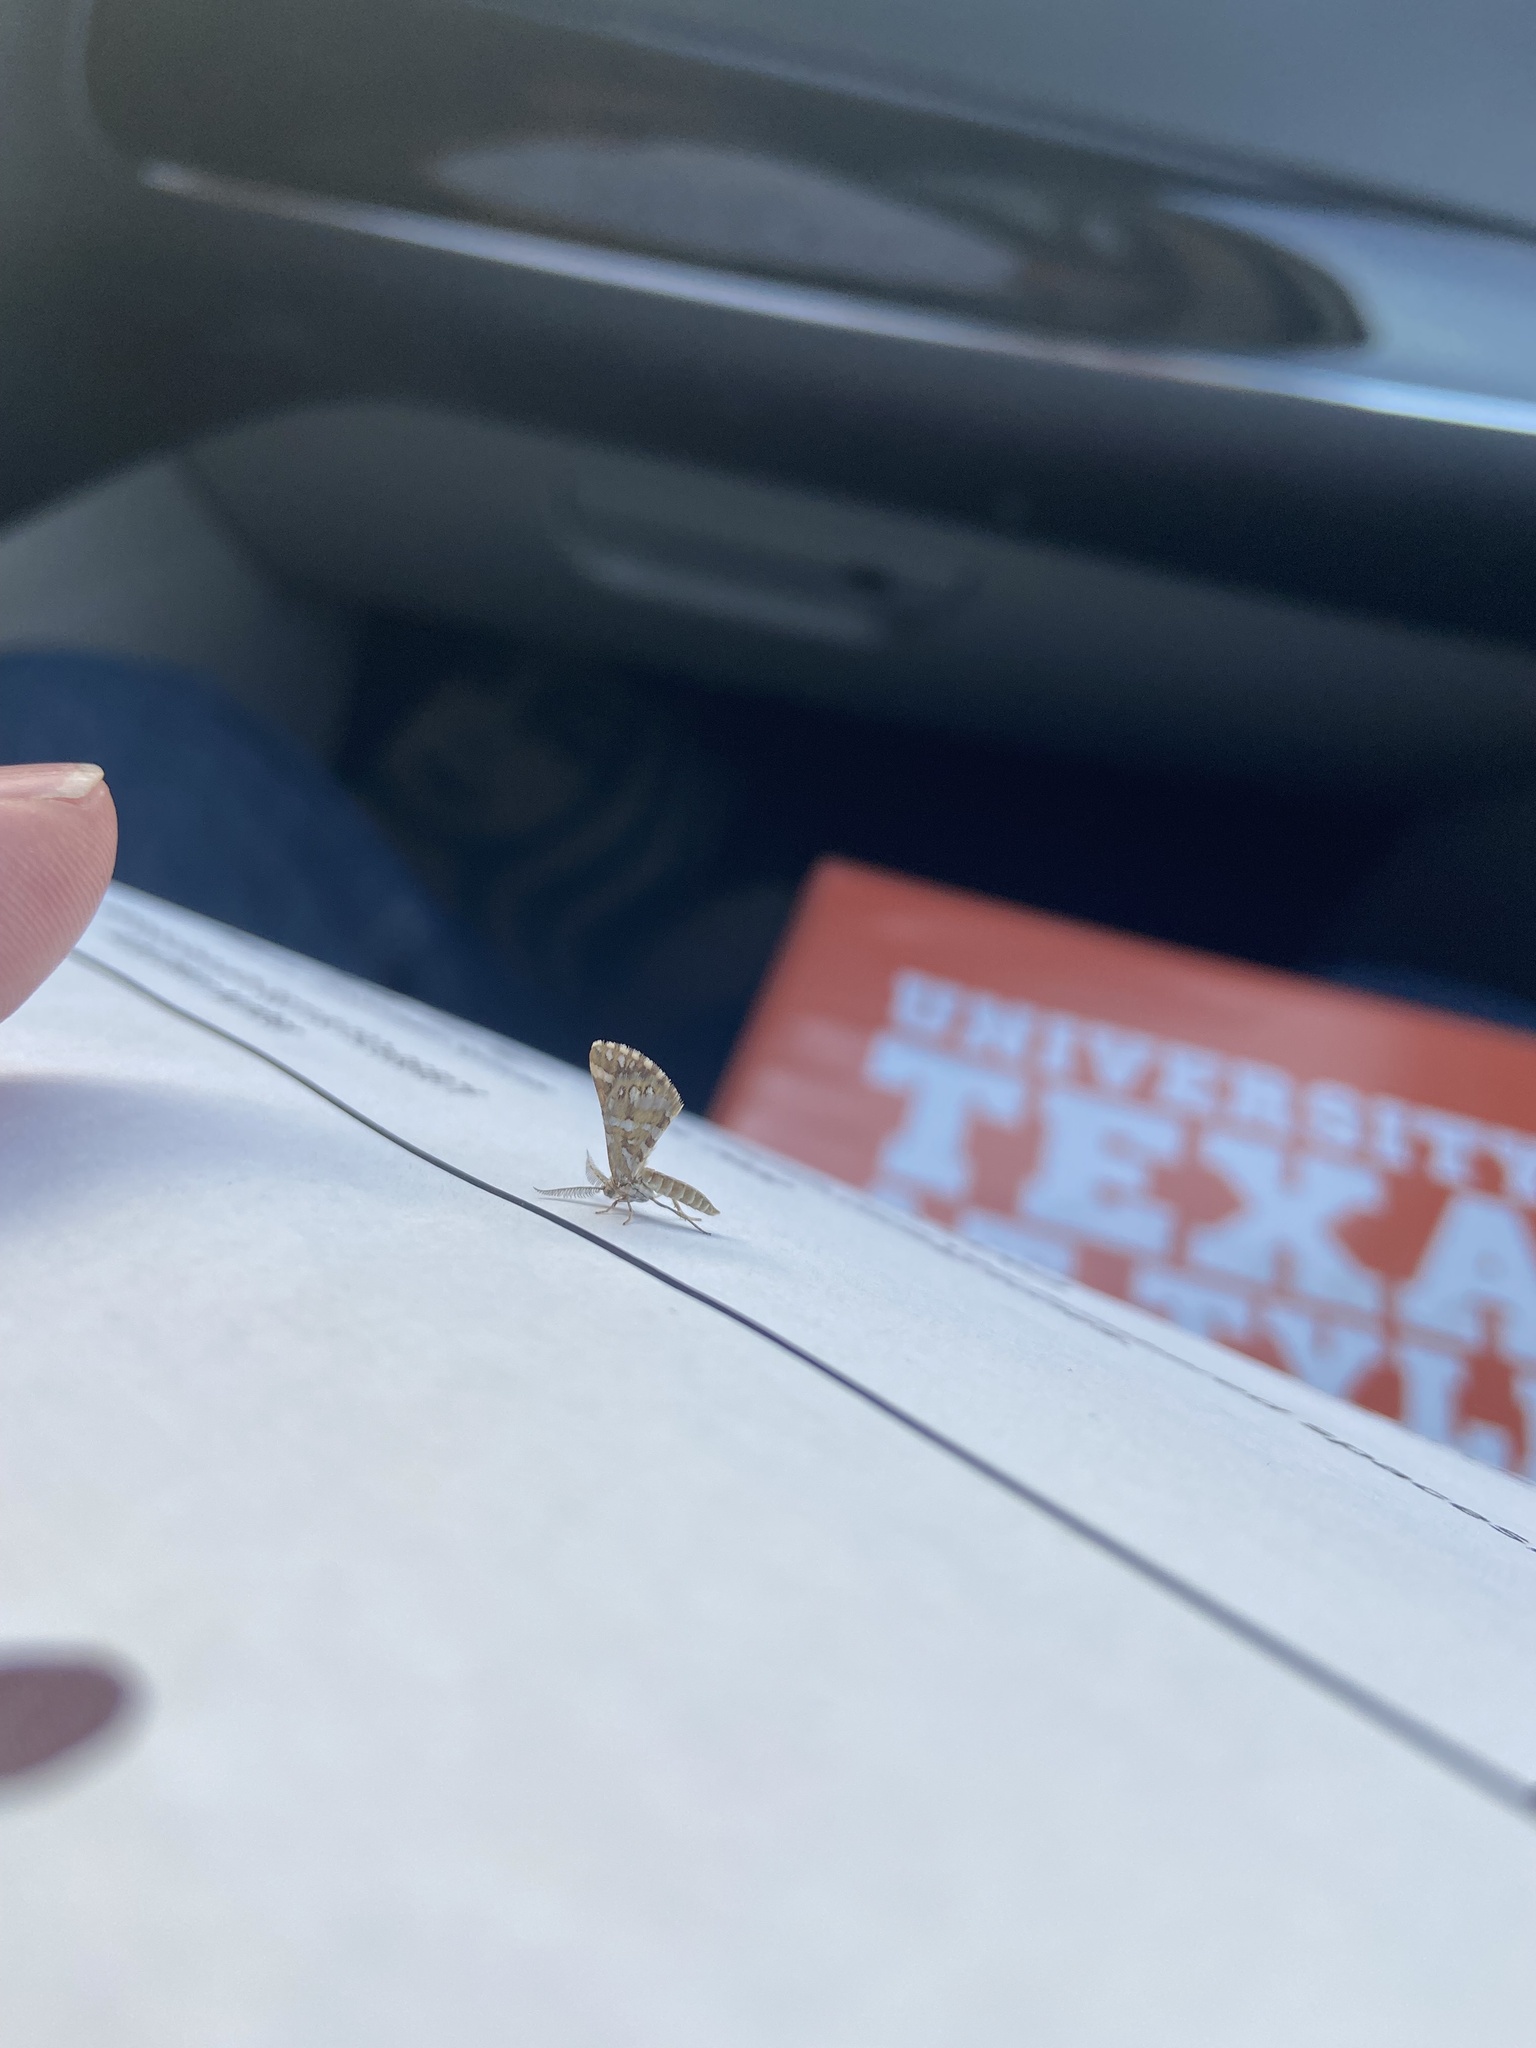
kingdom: Animalia
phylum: Arthropoda
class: Insecta
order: Lepidoptera
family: Geometridae
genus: Narraga
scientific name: Narraga fimetaria
